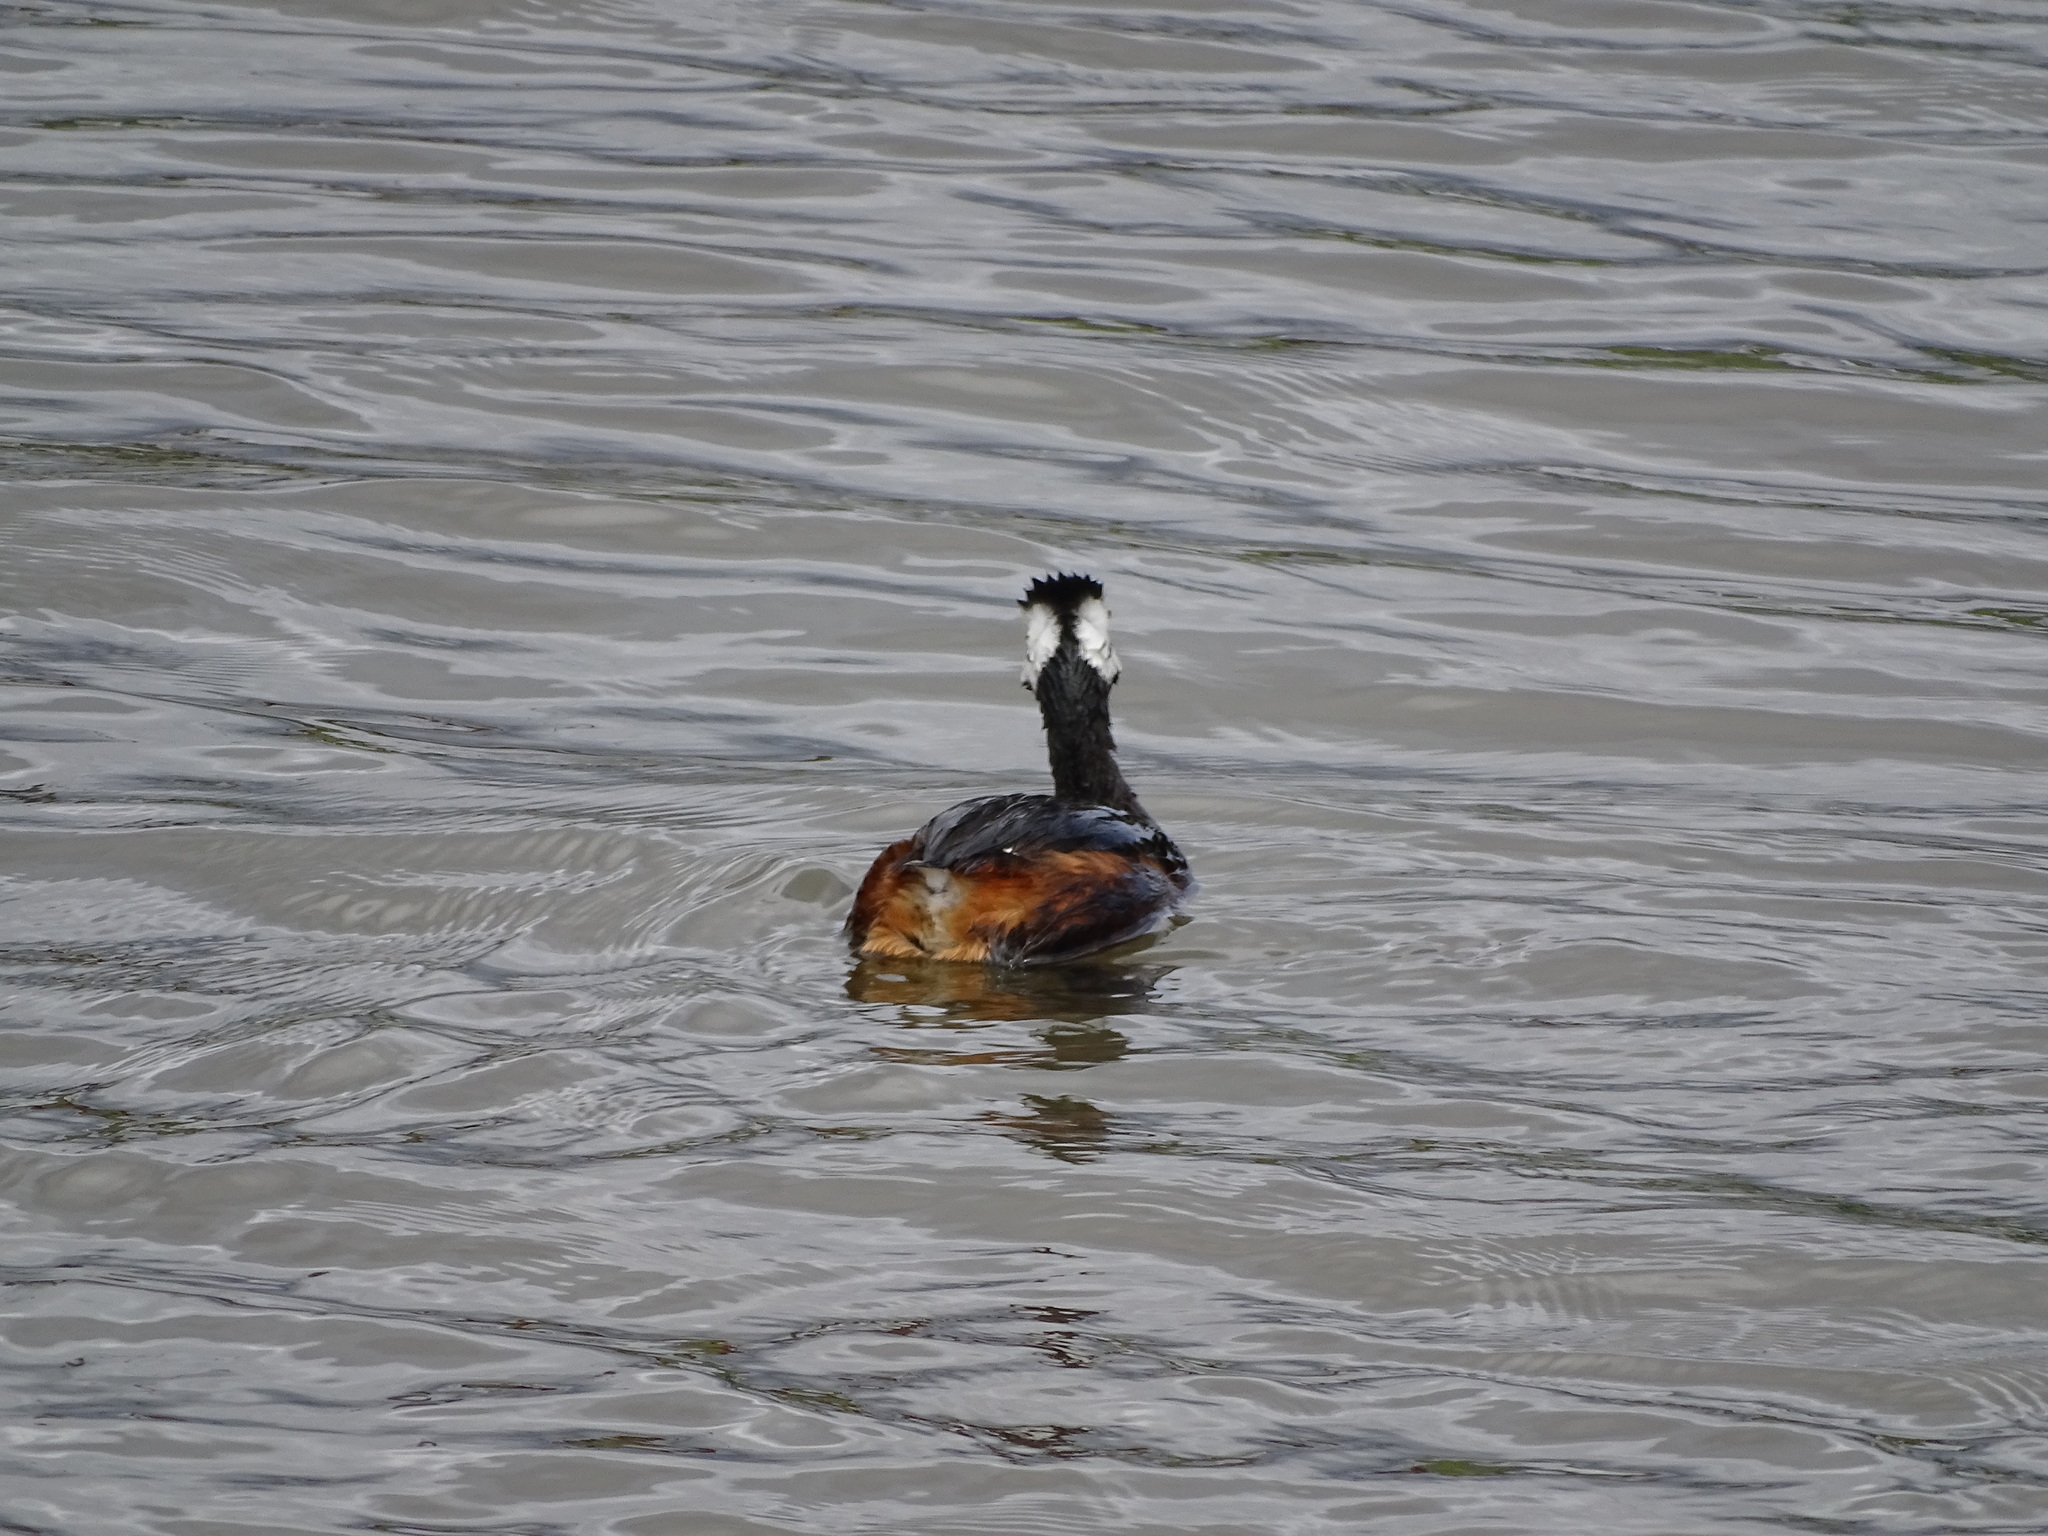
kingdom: Animalia
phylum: Chordata
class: Aves
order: Podicipediformes
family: Podicipedidae
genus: Rollandia
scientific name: Rollandia rolland
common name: White-tufted grebe
